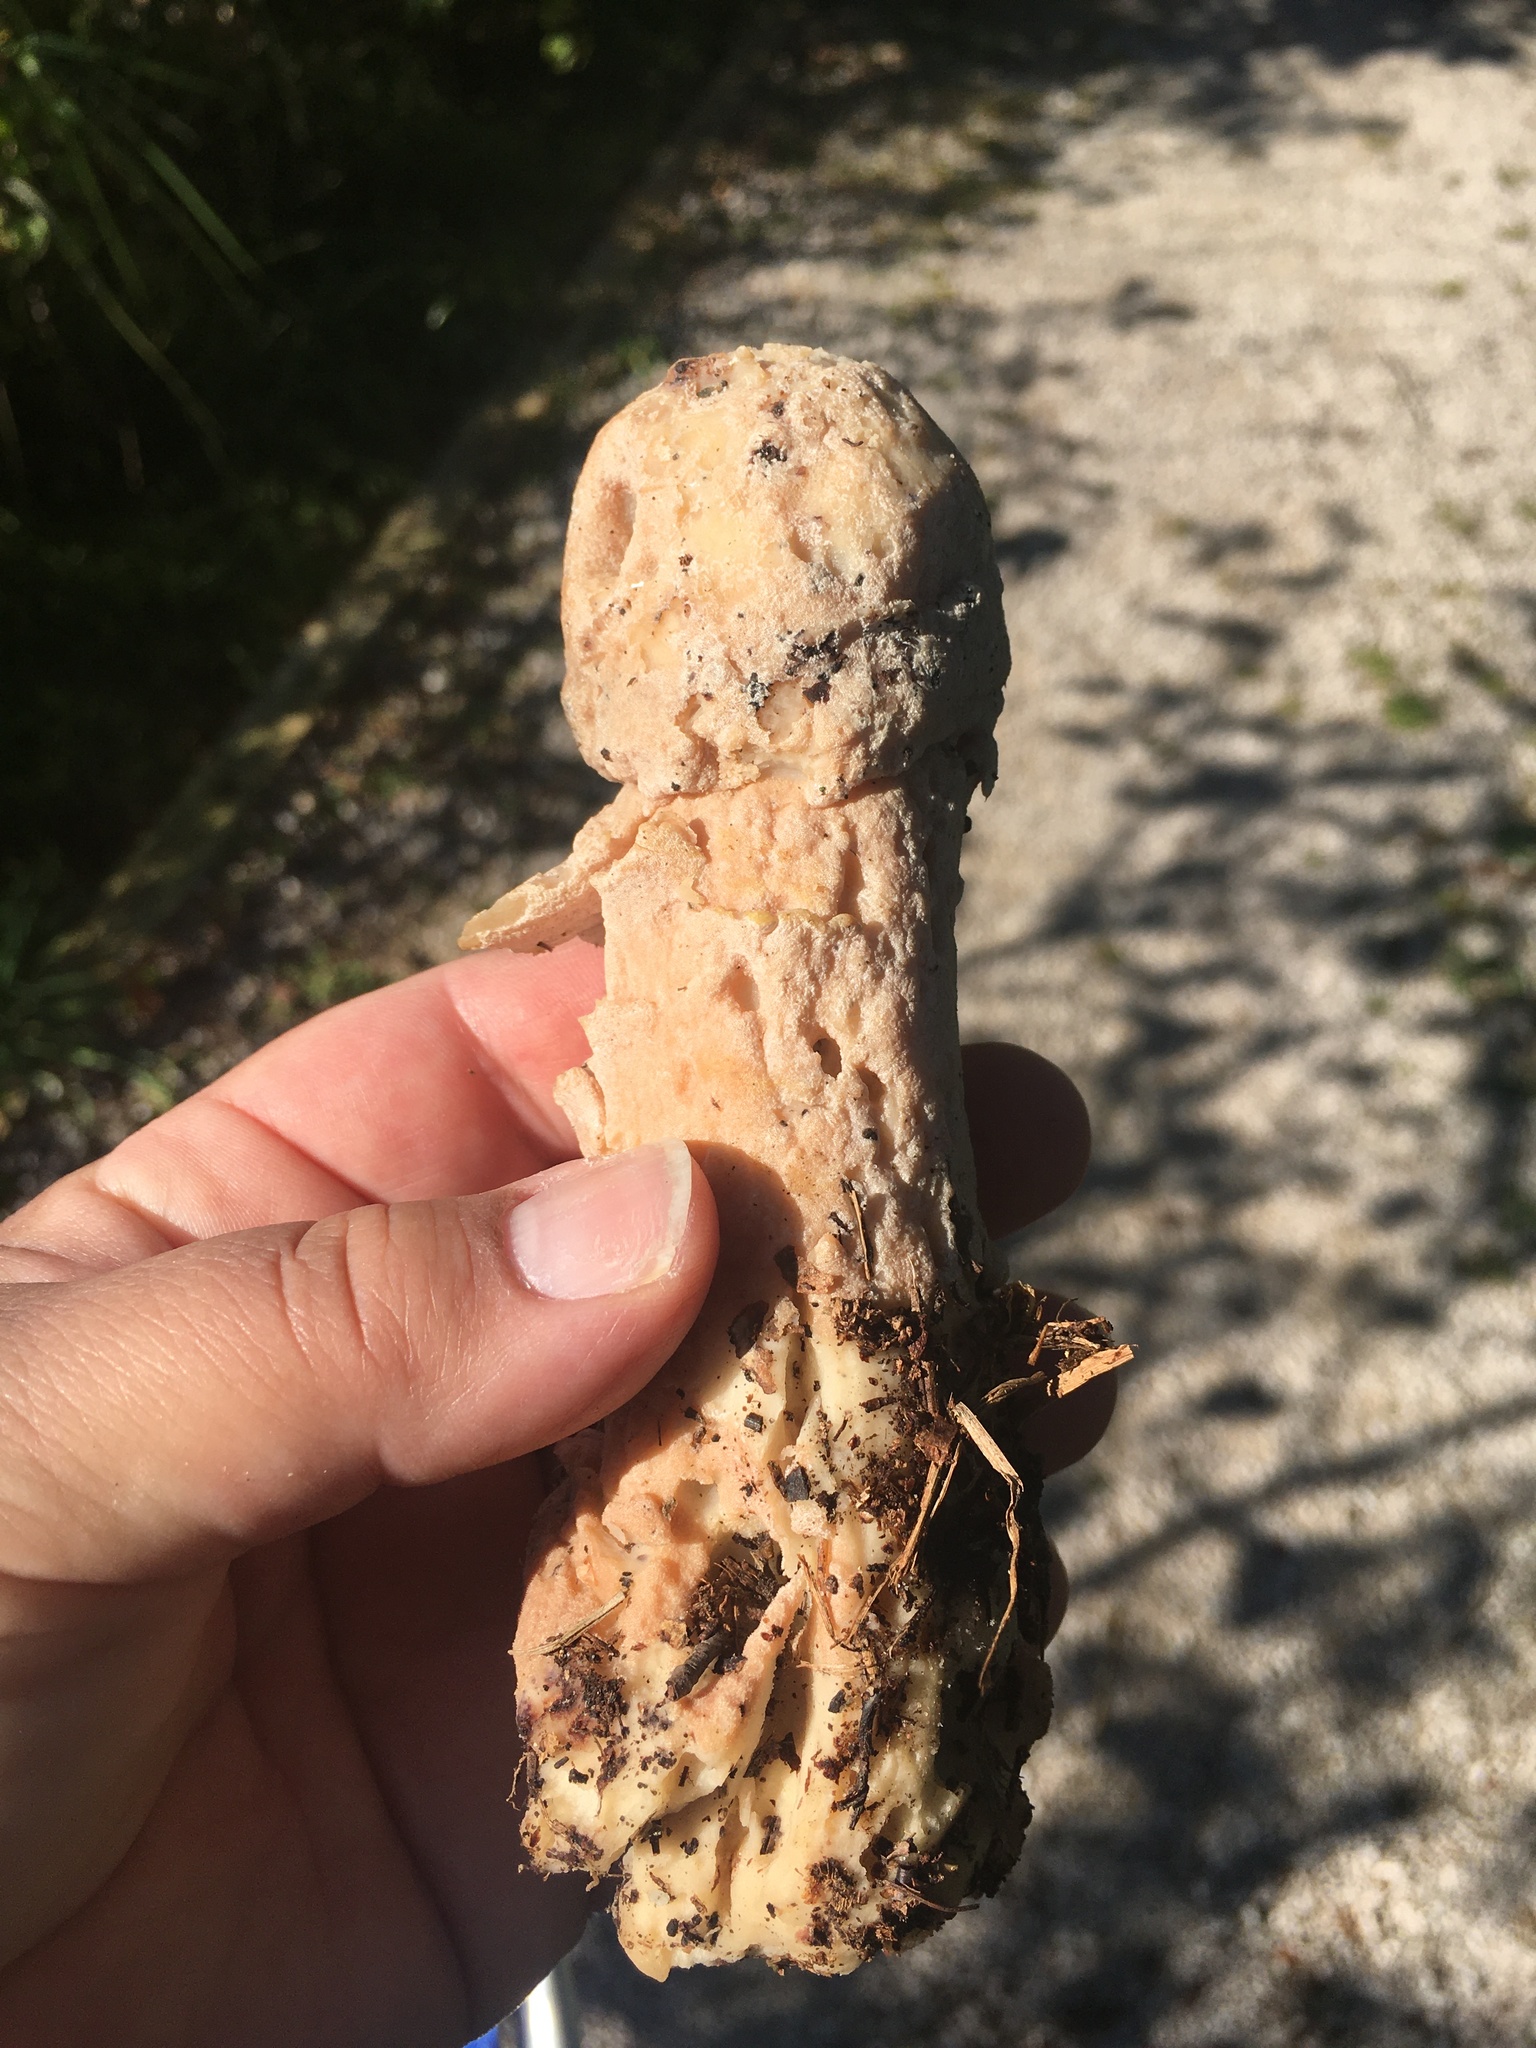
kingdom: Fungi
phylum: Ascomycota
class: Sordariomycetes
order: Hypocreales
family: Hypocreaceae
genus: Hypomyces
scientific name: Hypomyces hyalinus
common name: Amanita mold
